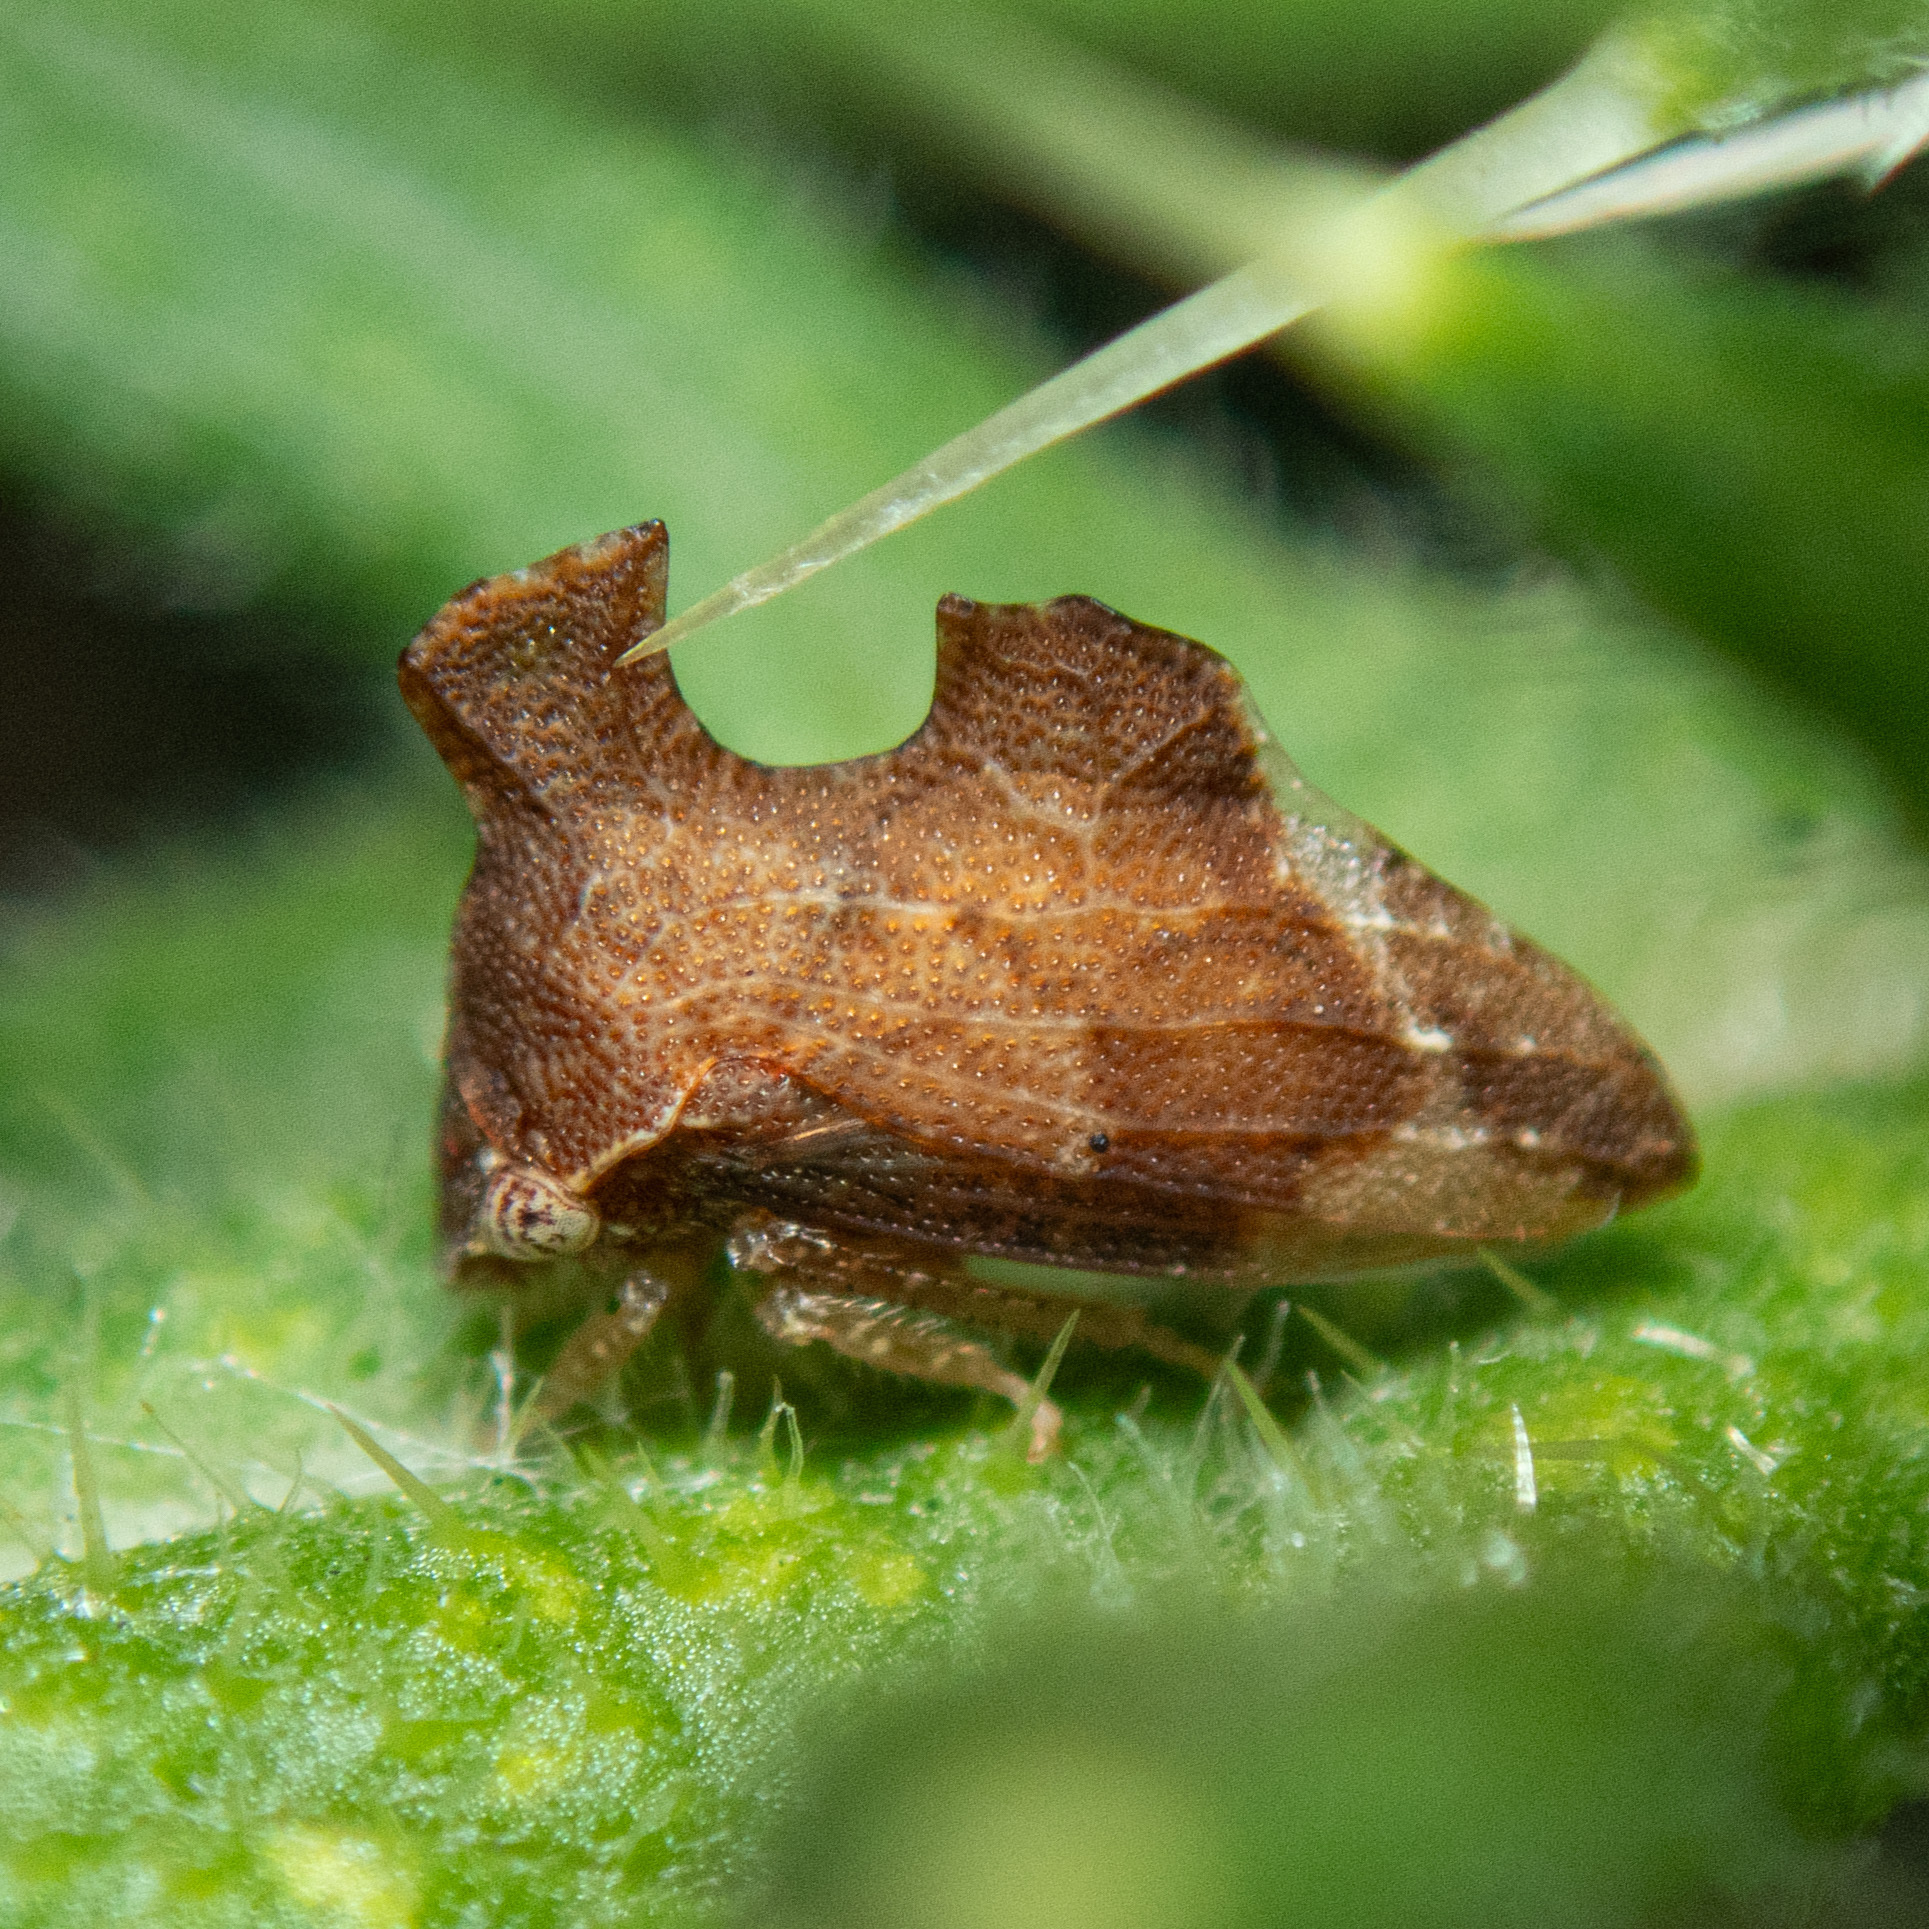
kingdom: Animalia
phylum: Arthropoda
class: Insecta
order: Hemiptera
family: Membracidae
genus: Entylia
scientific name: Entylia carinata
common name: Keeled treehopper
